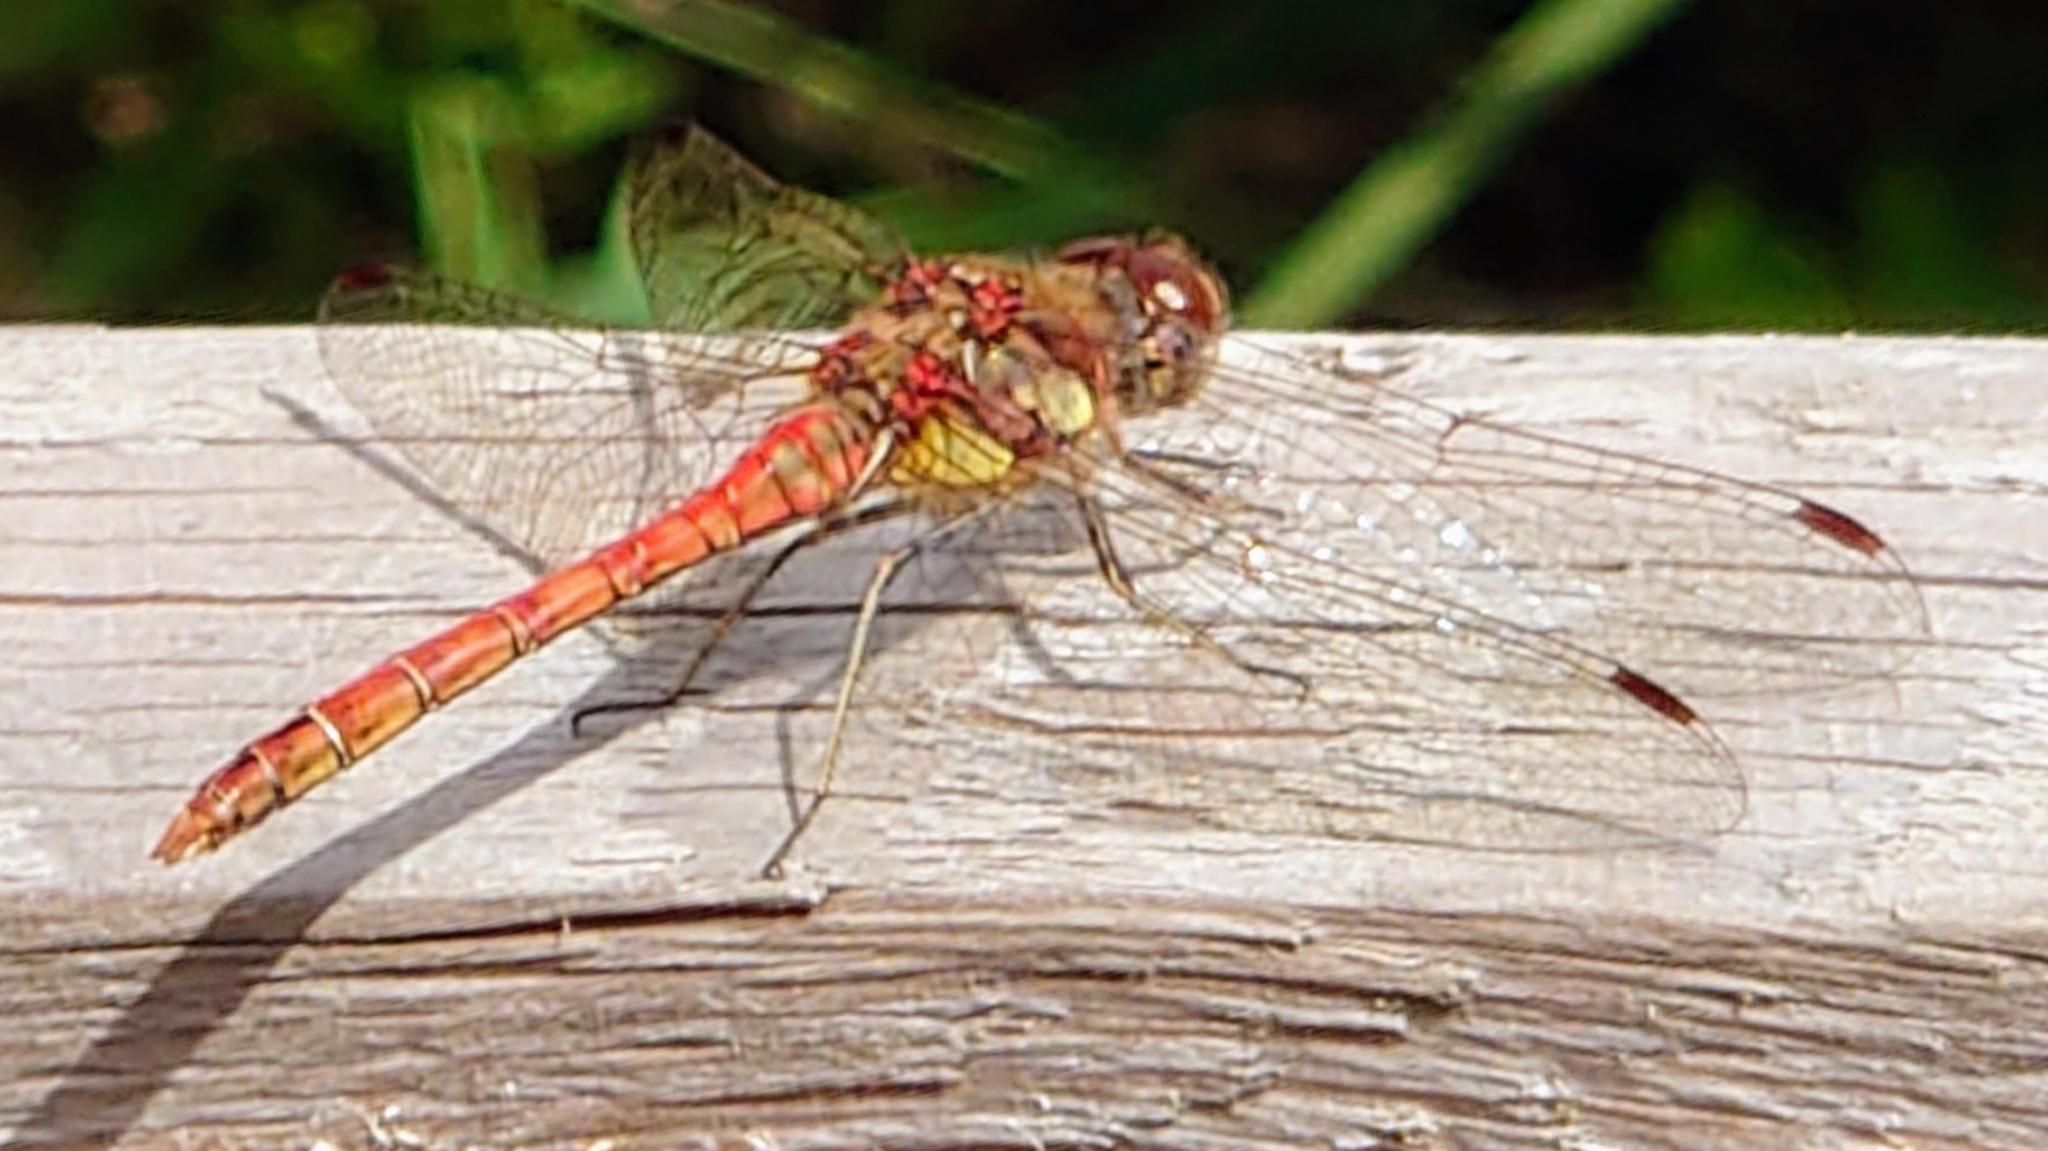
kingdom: Animalia
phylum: Arthropoda
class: Insecta
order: Odonata
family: Libellulidae
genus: Sympetrum
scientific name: Sympetrum striolatum
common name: Common darter
